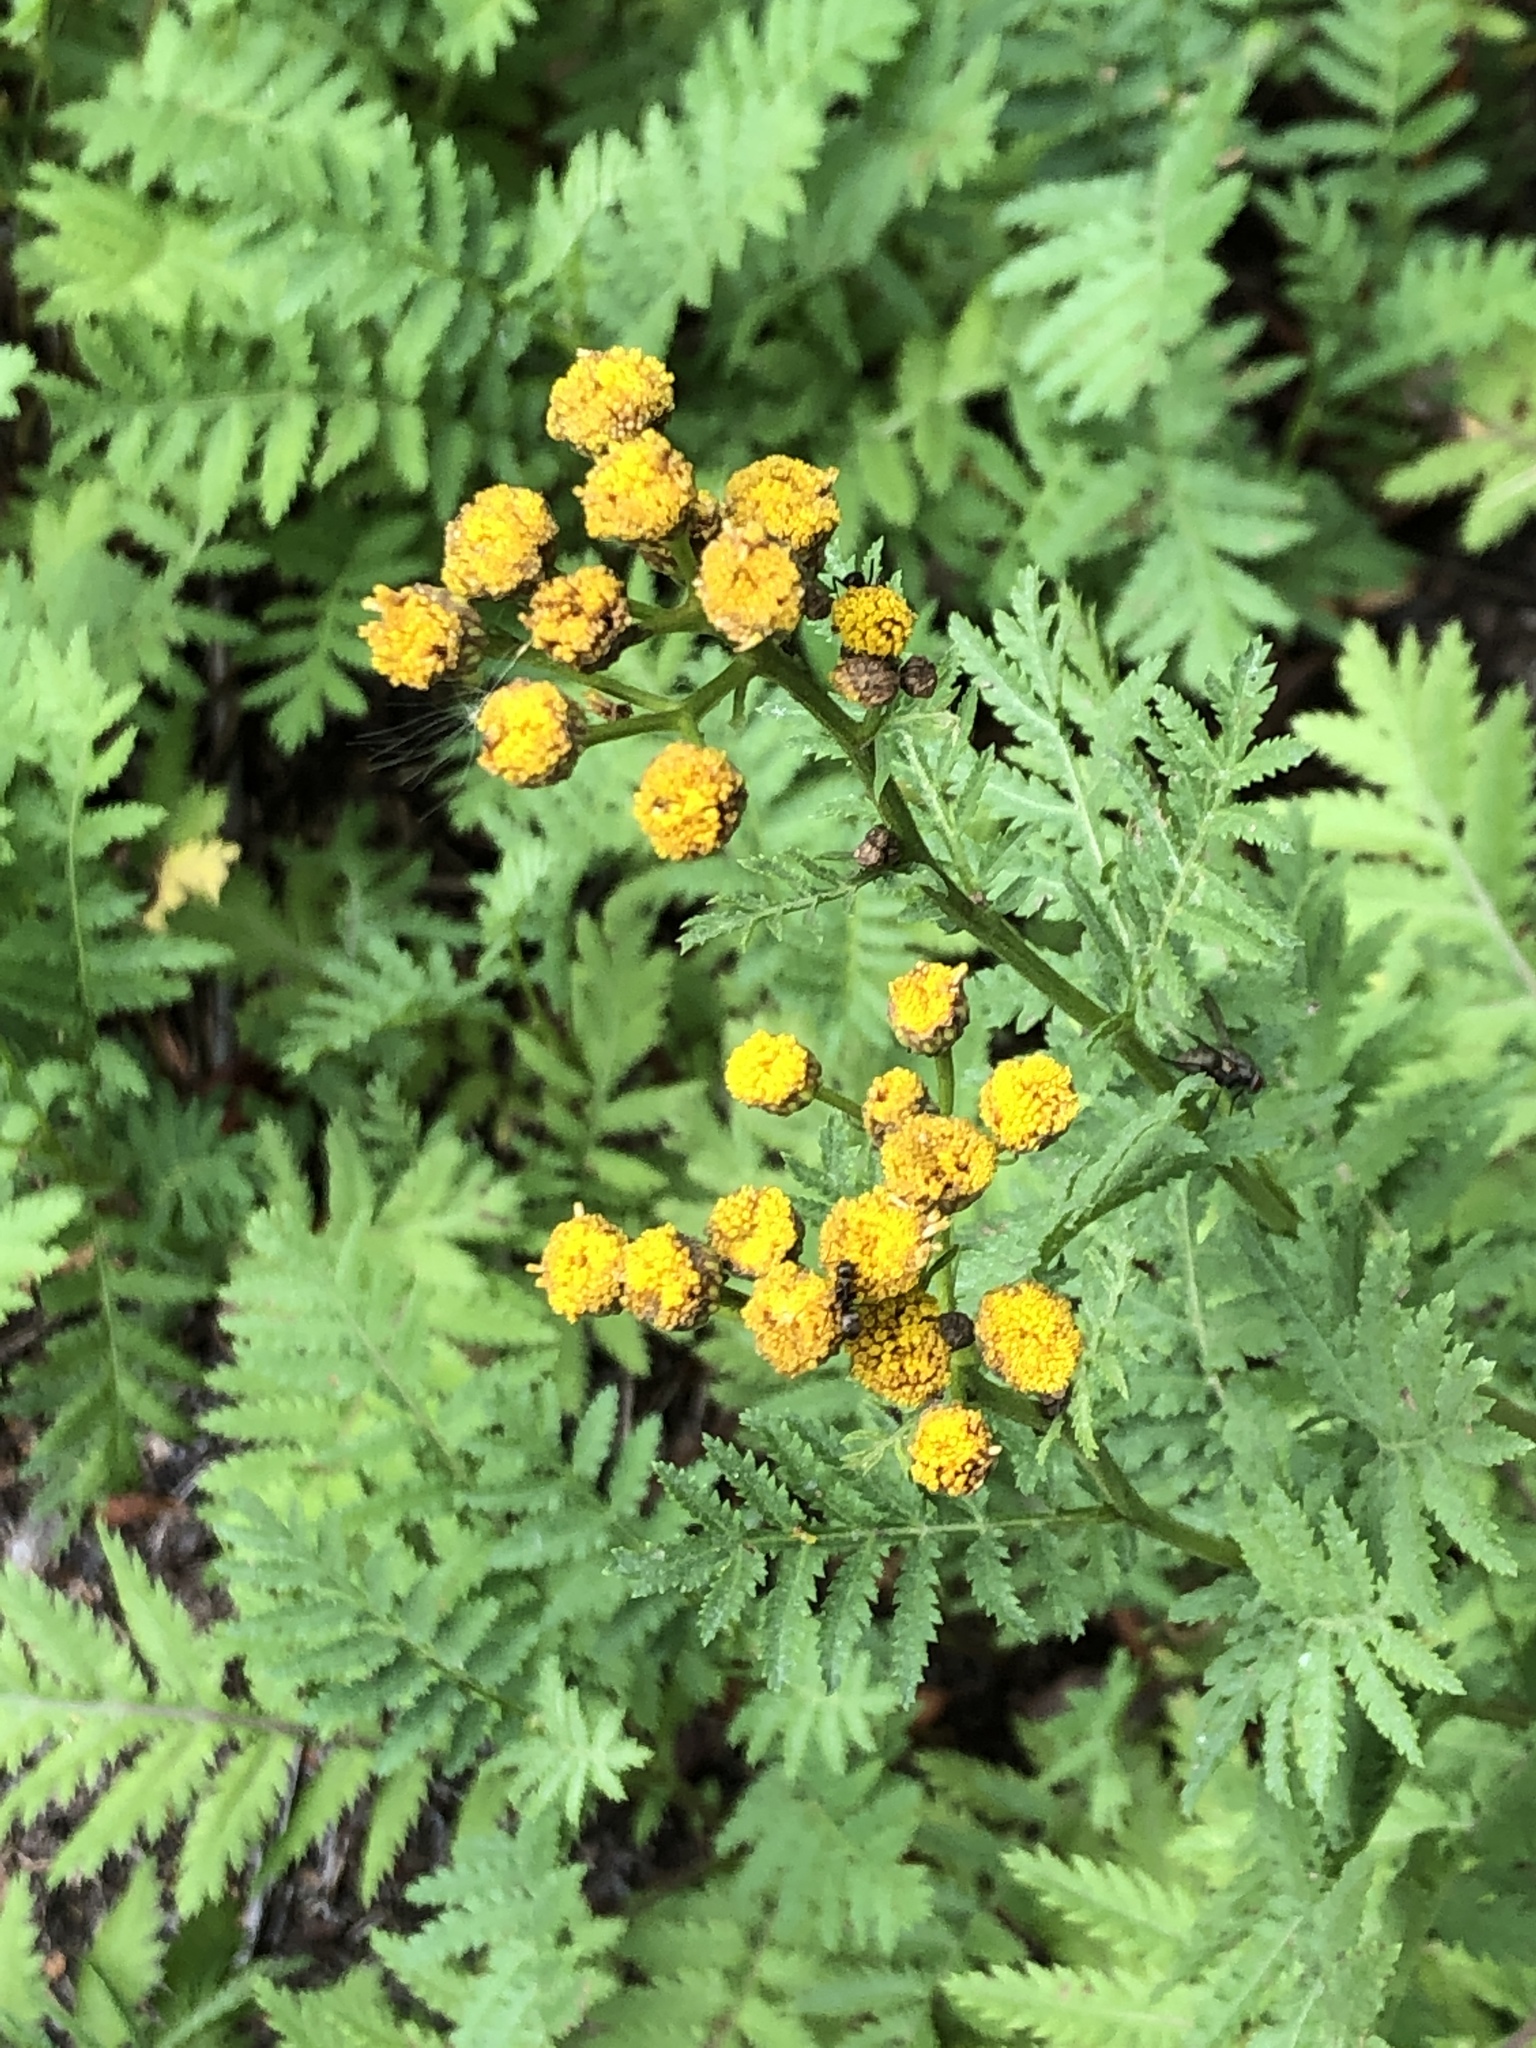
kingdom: Plantae
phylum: Tracheophyta
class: Magnoliopsida
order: Asterales
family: Asteraceae
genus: Tanacetum
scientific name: Tanacetum vulgare
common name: Common tansy
